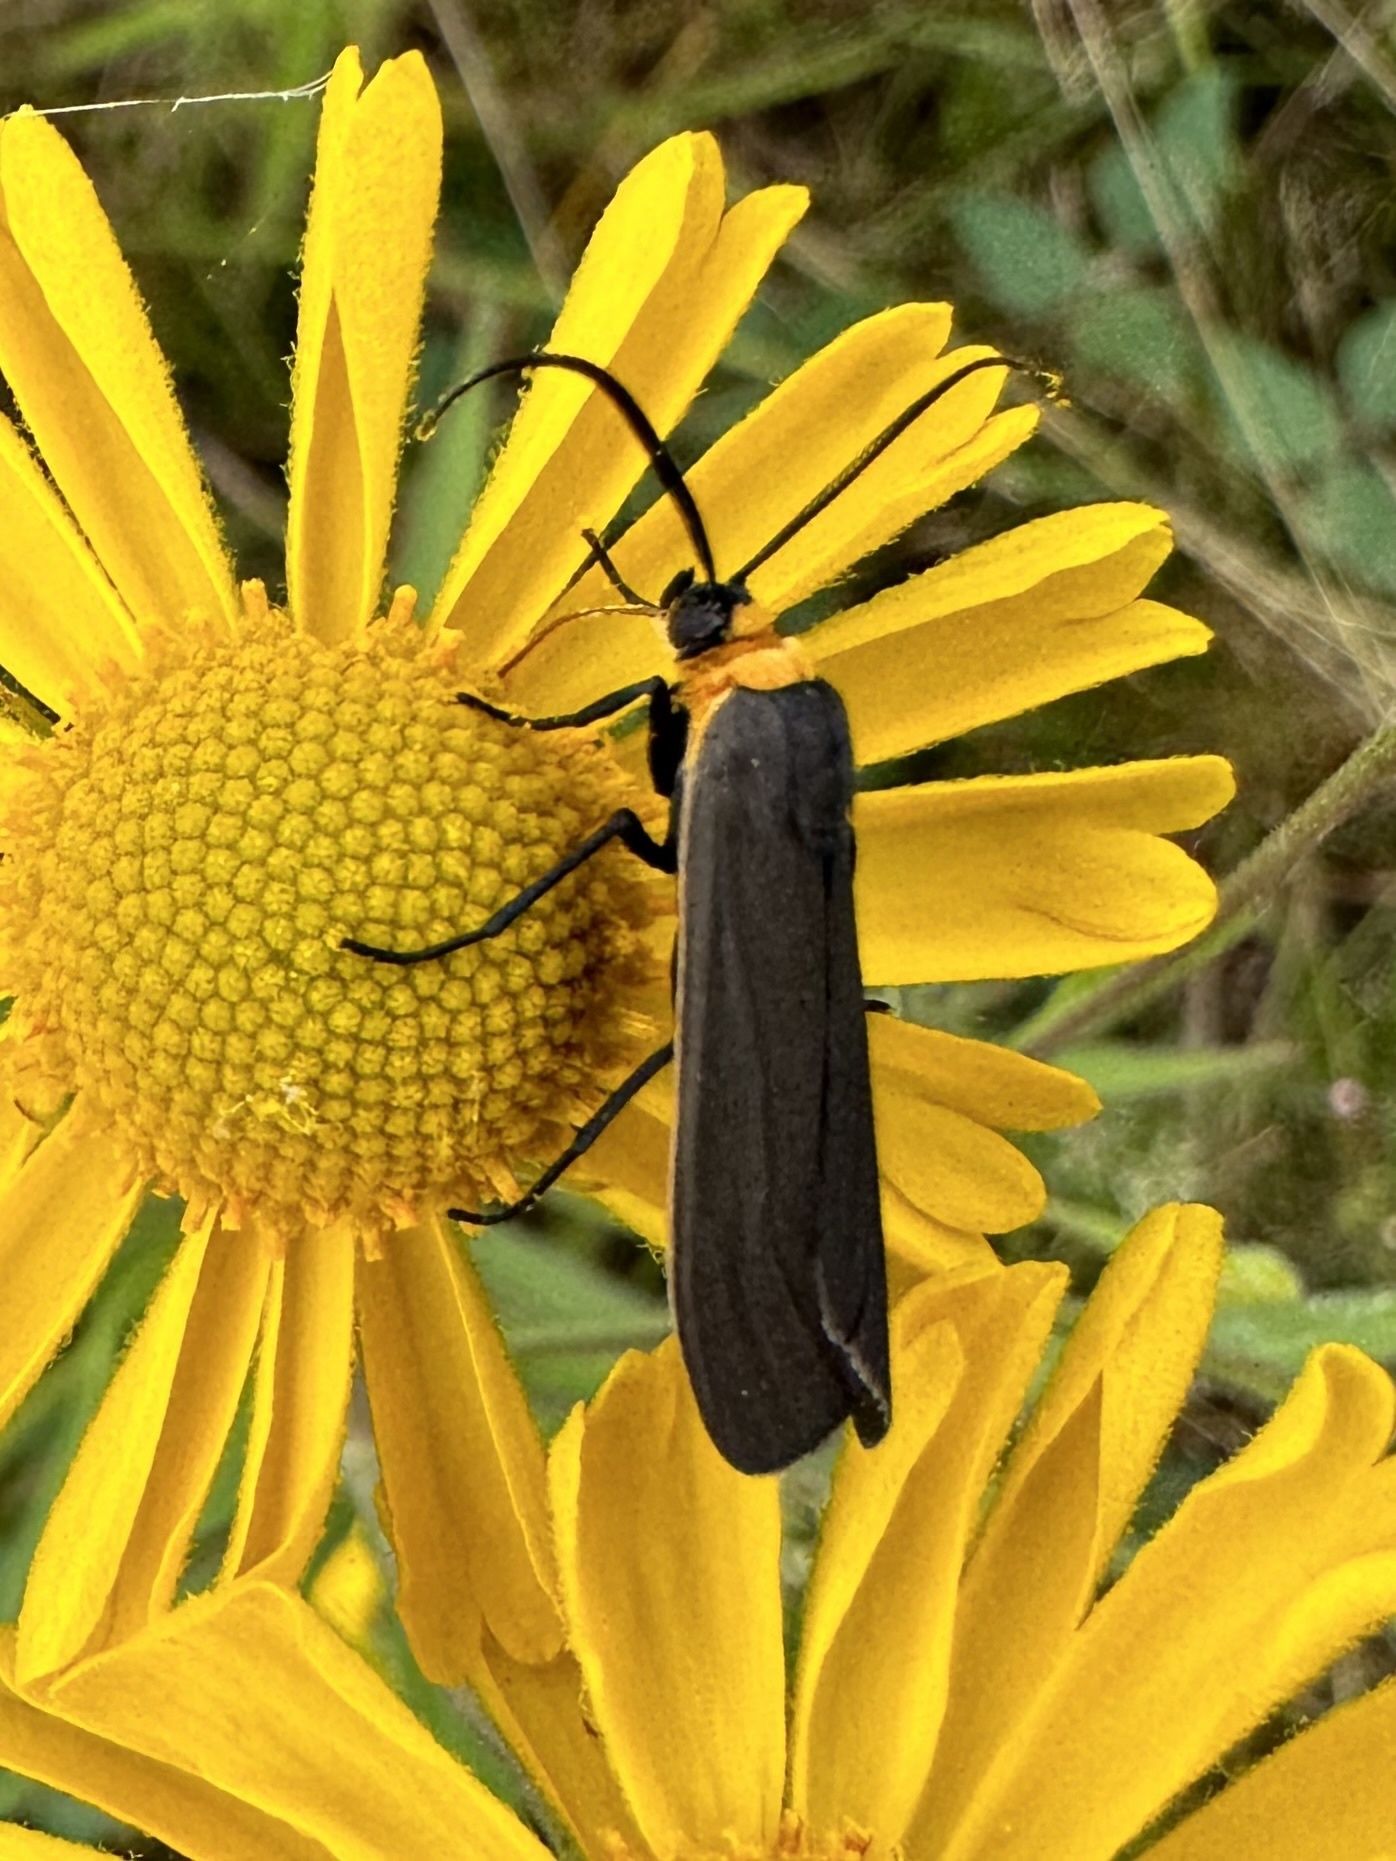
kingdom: Animalia
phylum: Arthropoda
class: Insecta
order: Lepidoptera
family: Erebidae
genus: Cisseps
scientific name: Cisseps fulvicollis
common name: Yellow-collared scape moth
